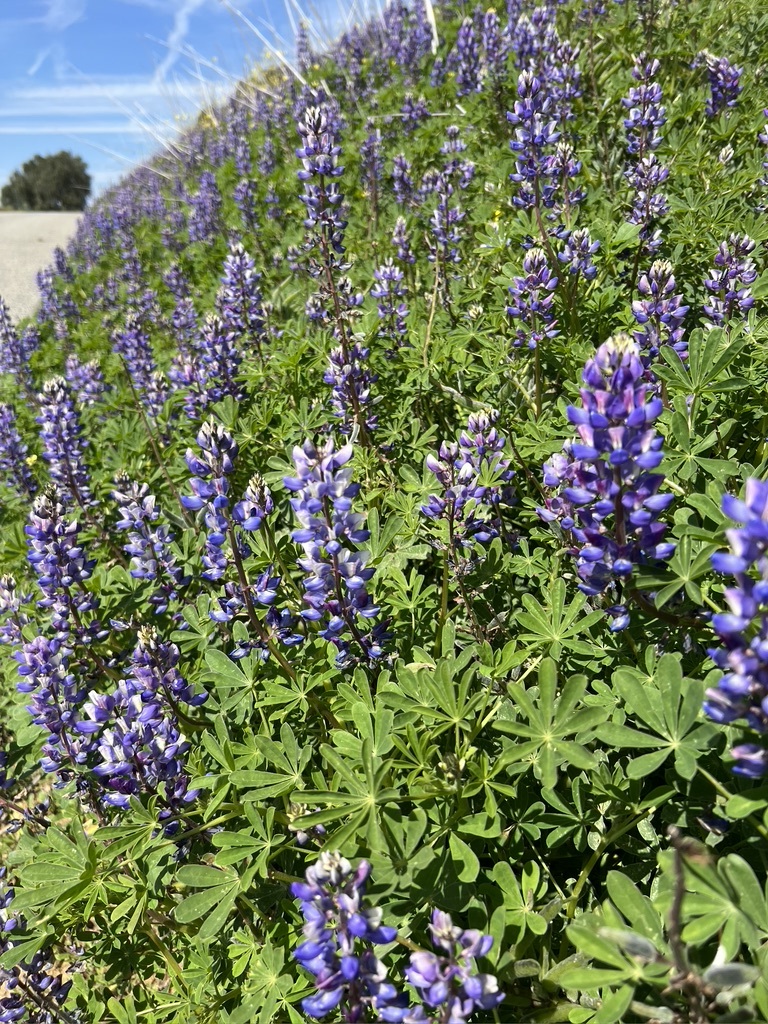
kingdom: Plantae
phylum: Tracheophyta
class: Magnoliopsida
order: Fabales
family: Fabaceae
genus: Lupinus
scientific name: Lupinus succulentus
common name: Arroyo lupine
